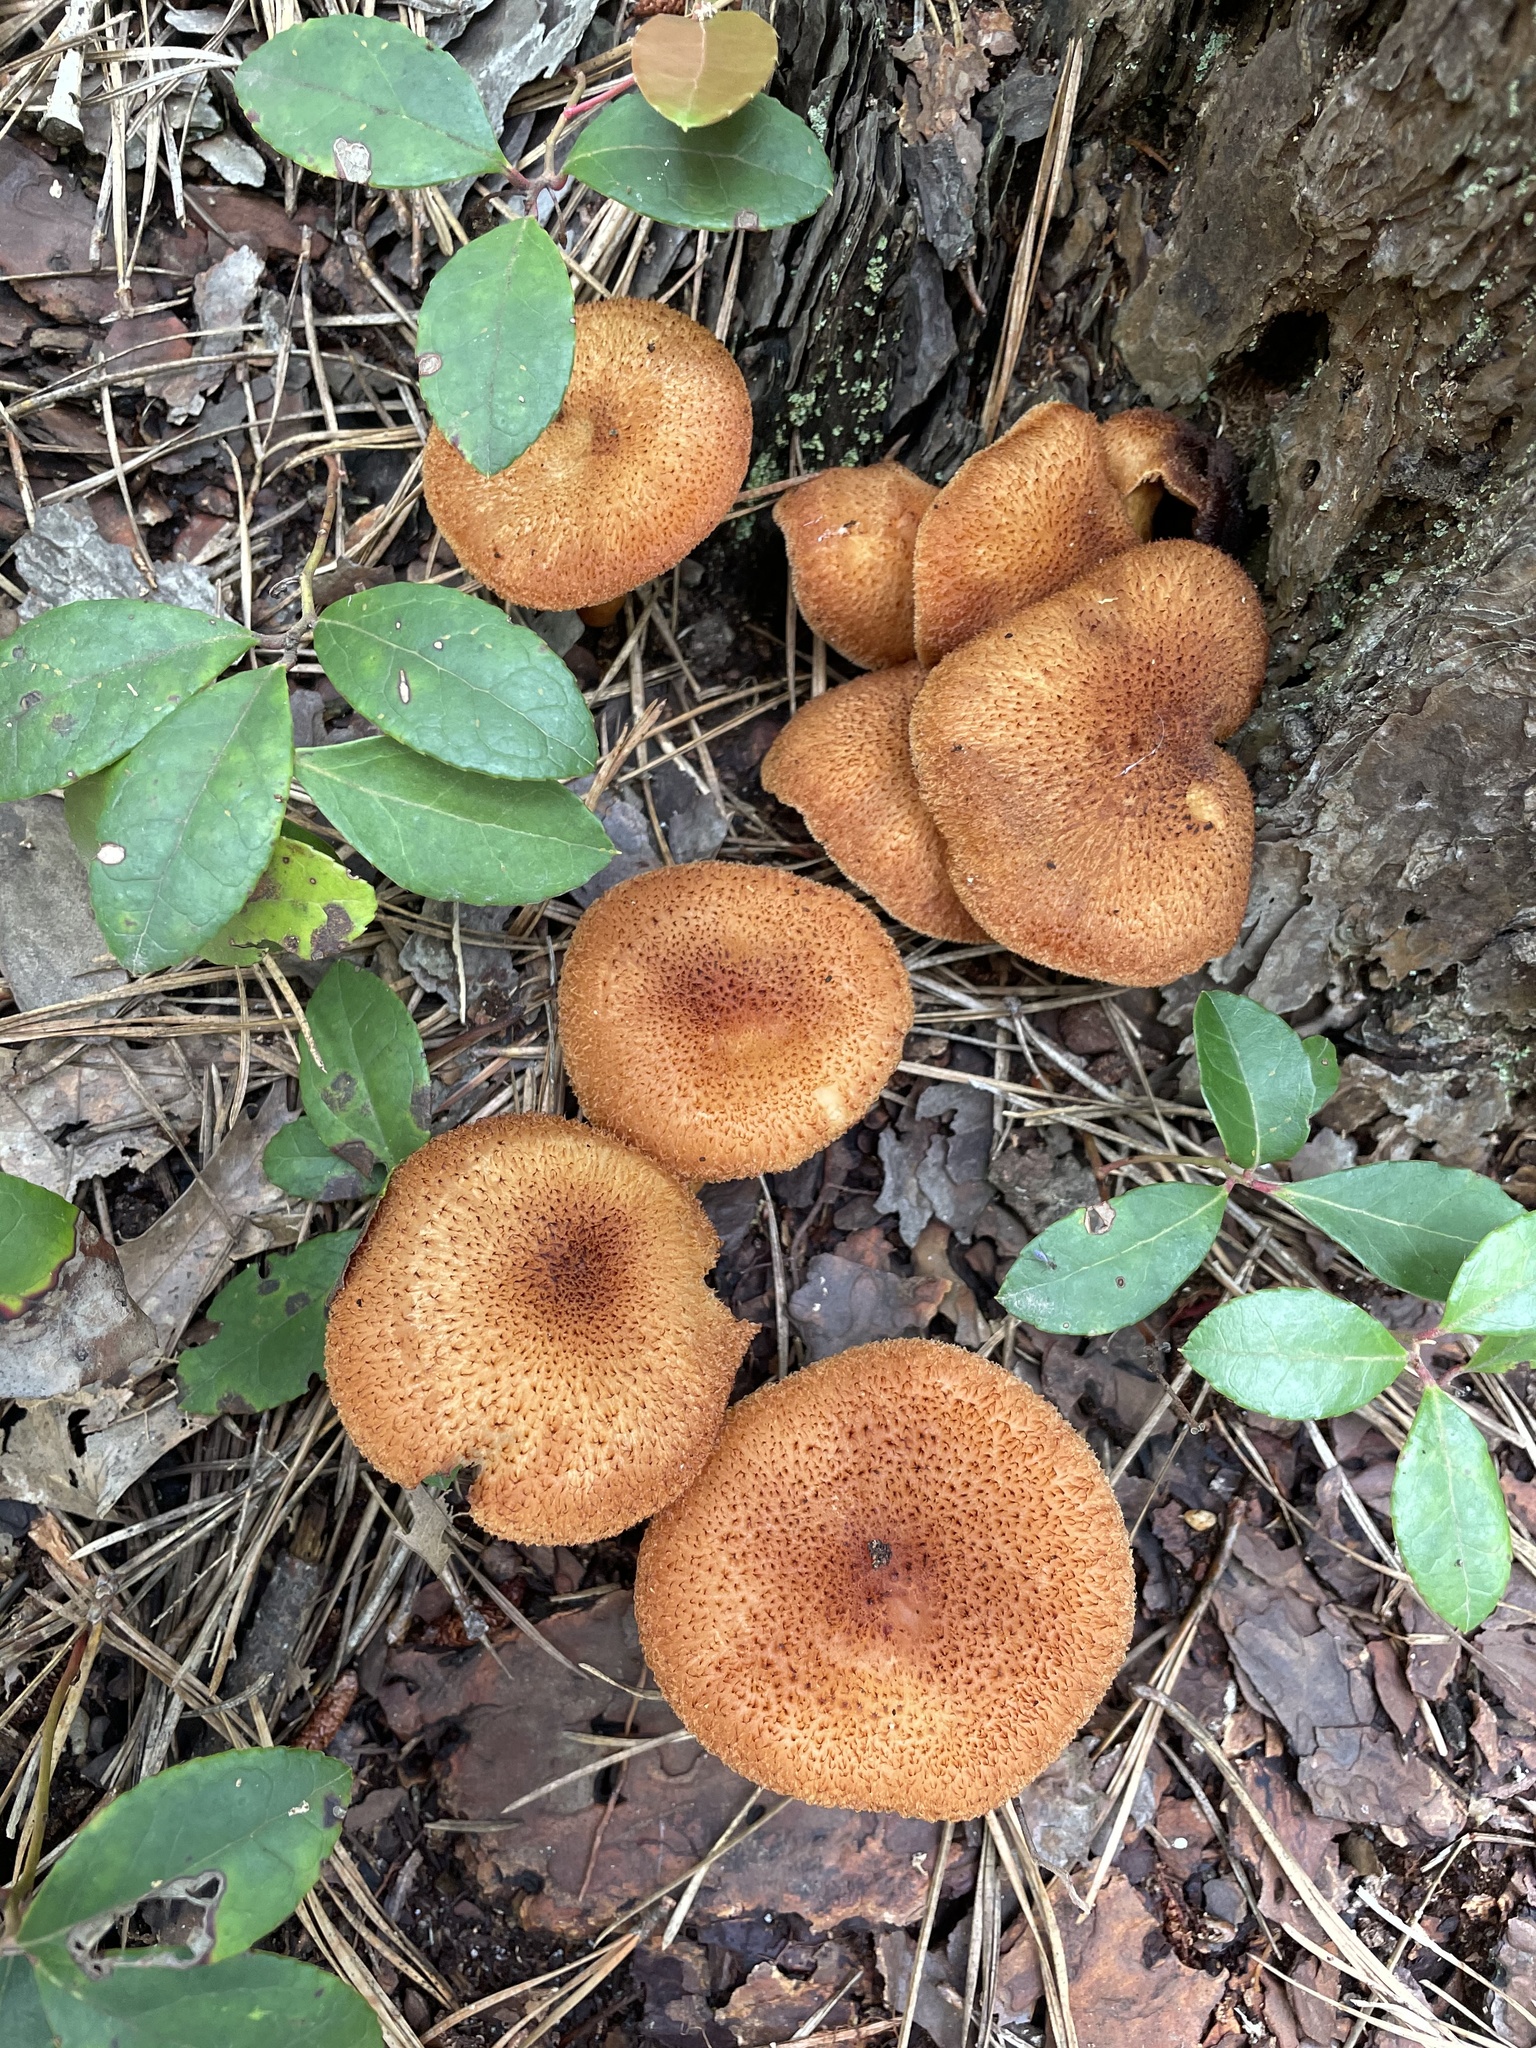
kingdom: Fungi
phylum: Basidiomycota
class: Agaricomycetes
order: Agaricales
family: Tricholomataceae
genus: Tricholomopsis
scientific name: Tricholomopsis formosa
